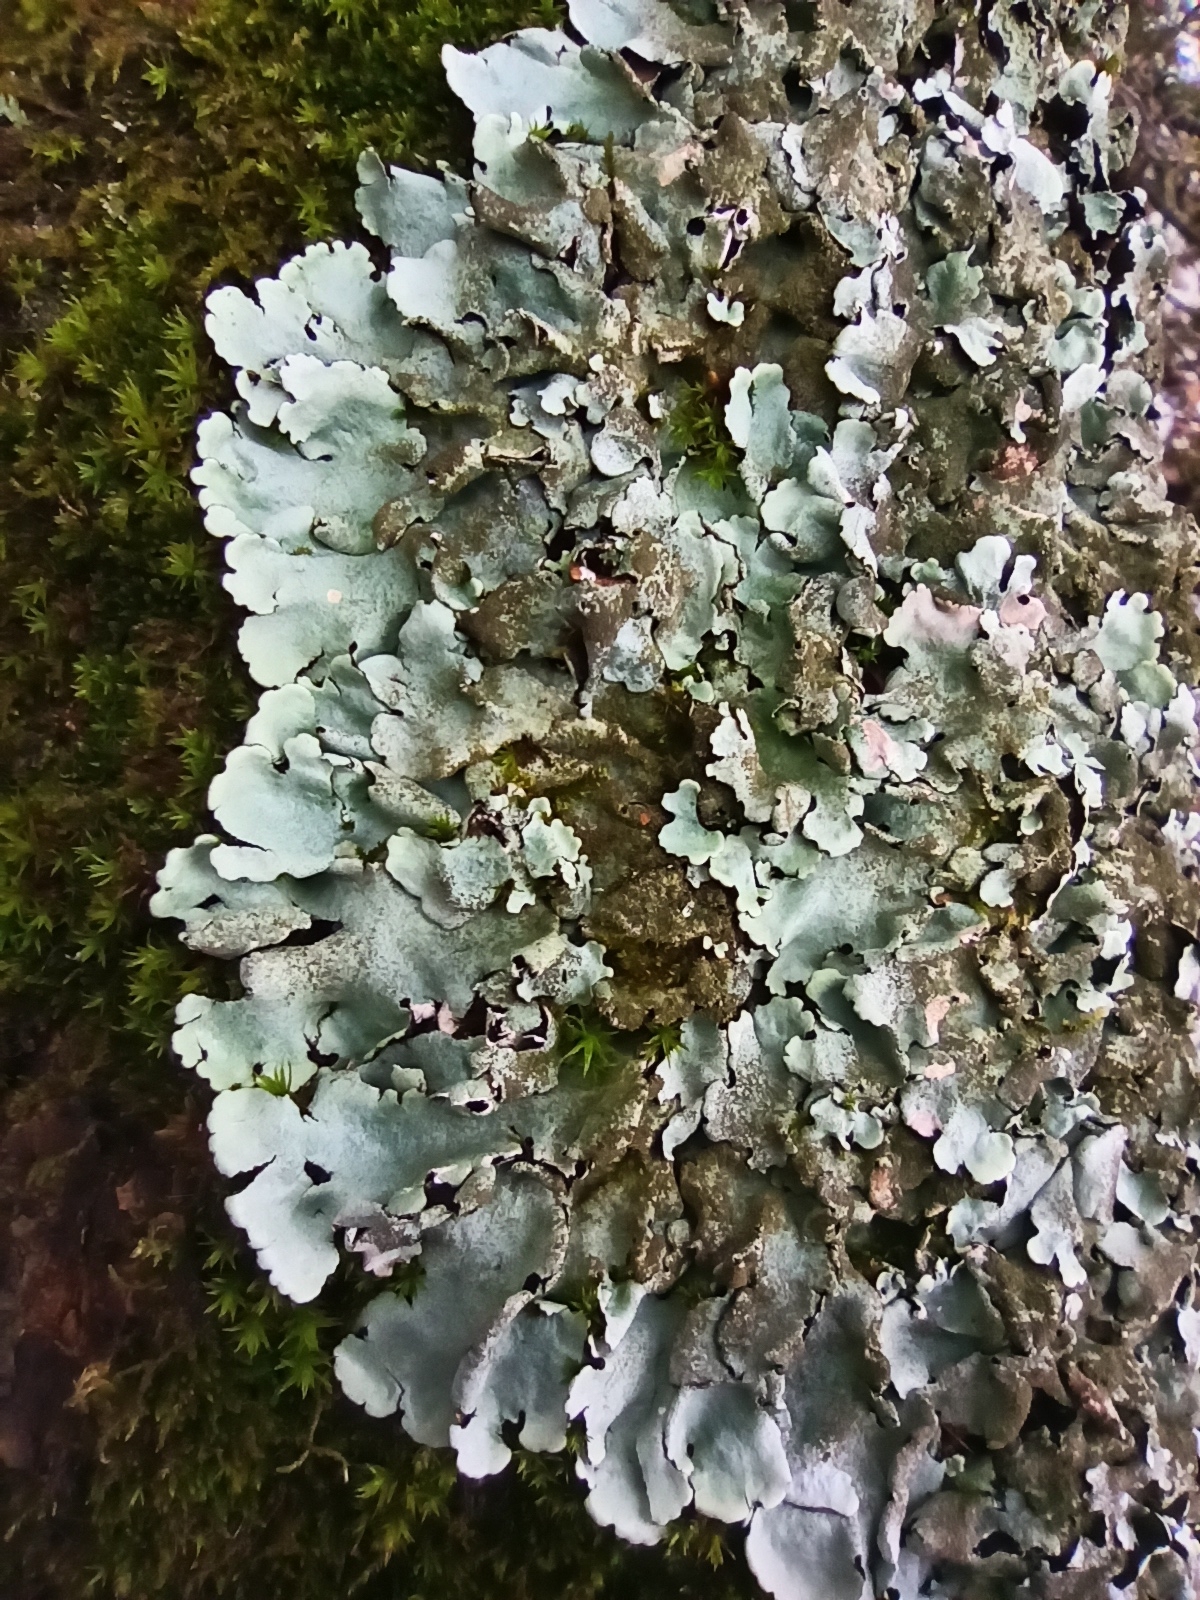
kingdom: Fungi
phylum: Ascomycota
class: Lecanoromycetes
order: Lecanorales
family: Parmeliaceae
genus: Parmelina
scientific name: Parmelina tiliacea
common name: Linden shield lichen
